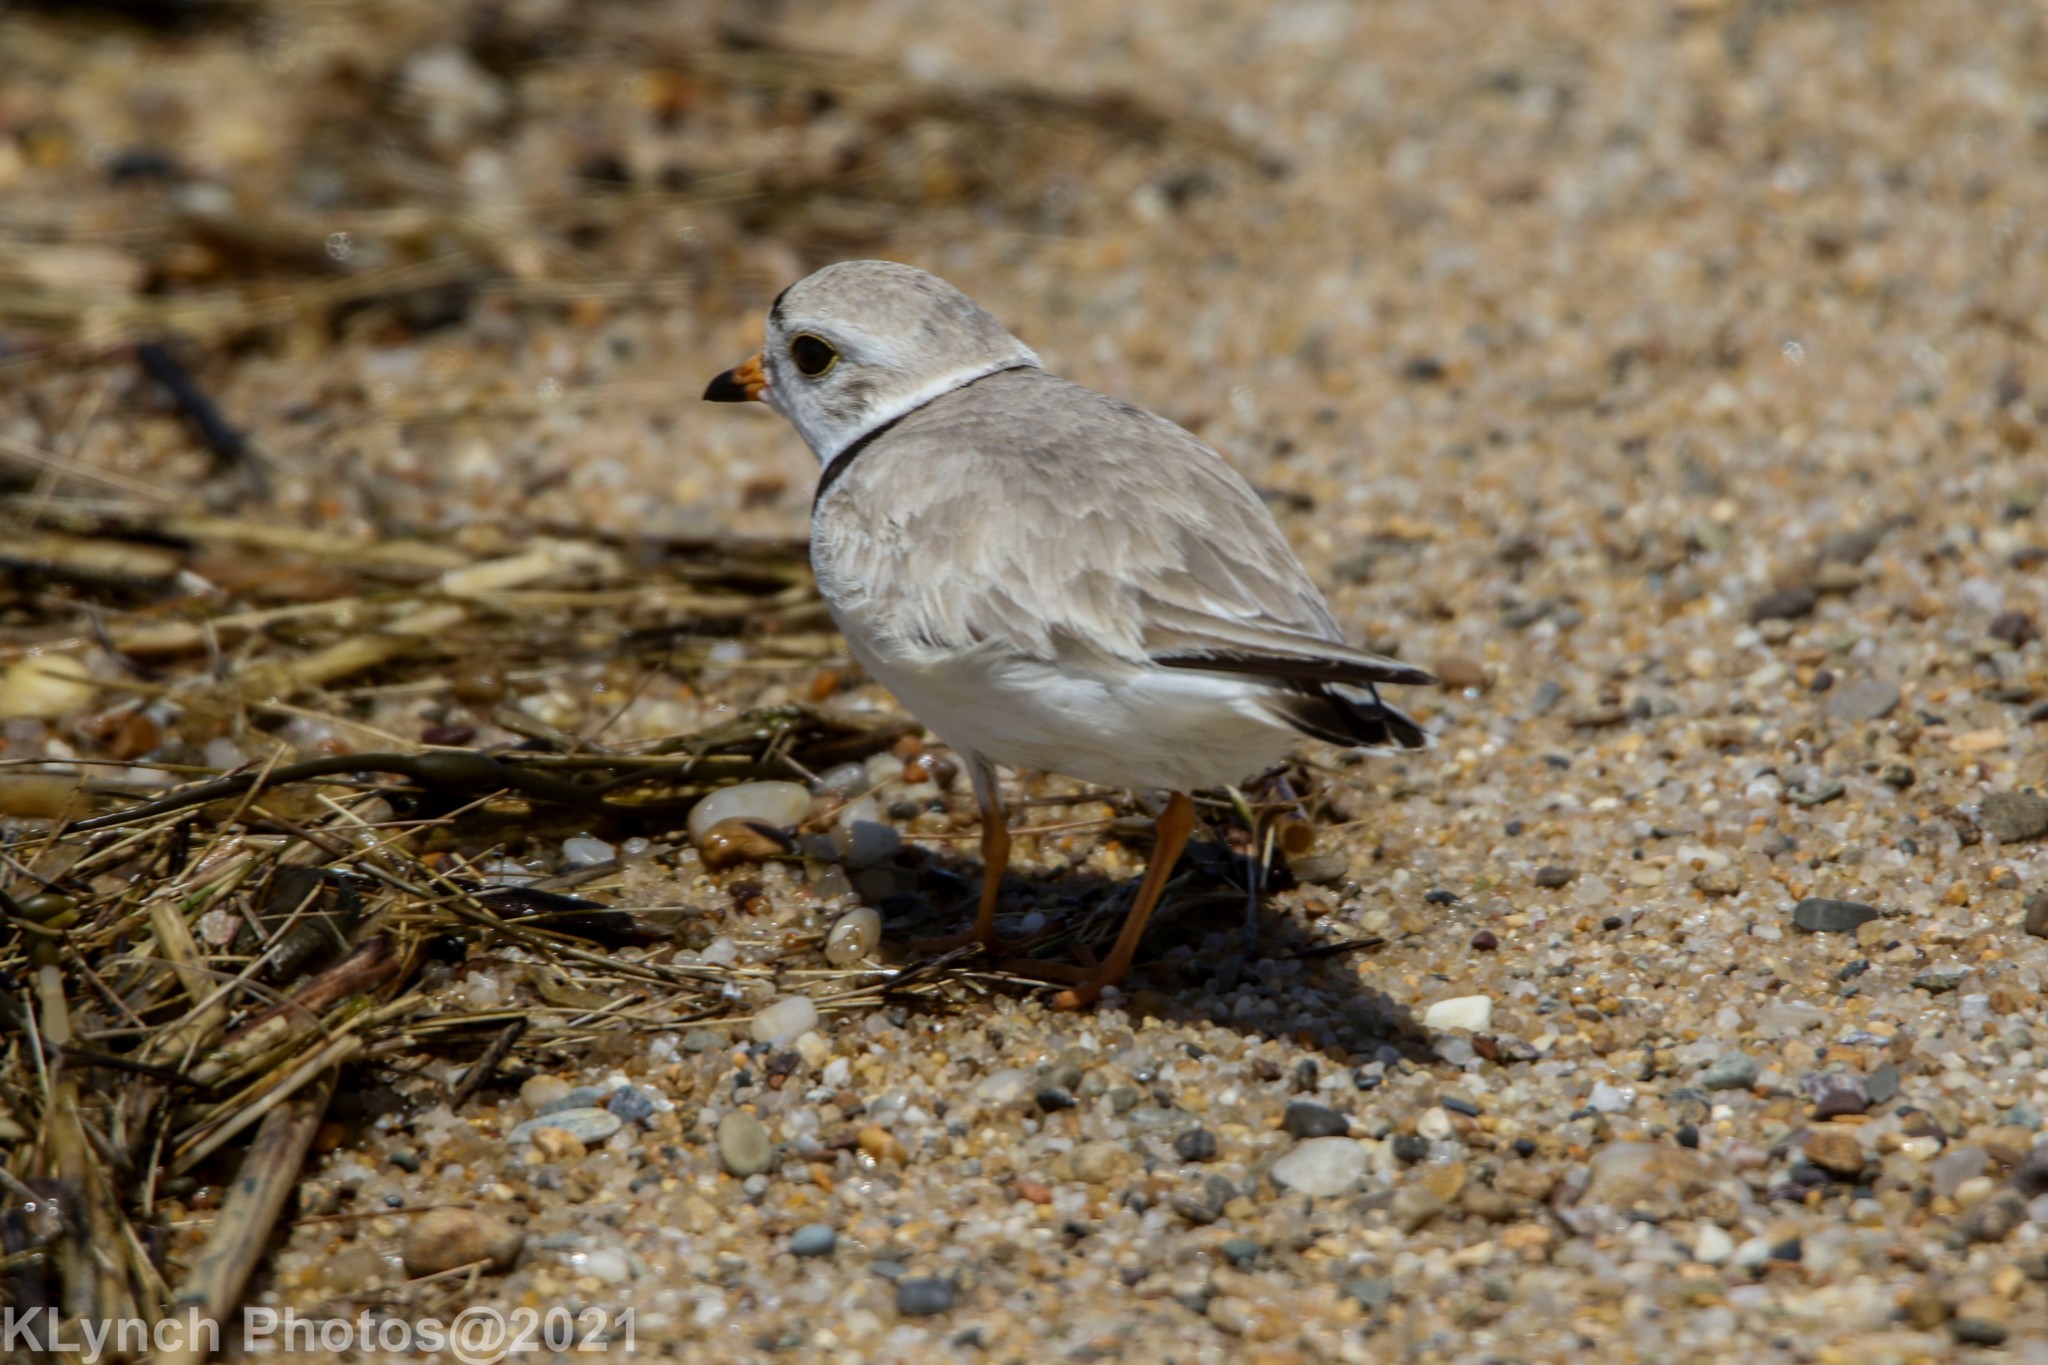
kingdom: Animalia
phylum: Chordata
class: Aves
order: Charadriiformes
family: Charadriidae
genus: Charadrius
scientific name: Charadrius melodus
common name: Piping plover
